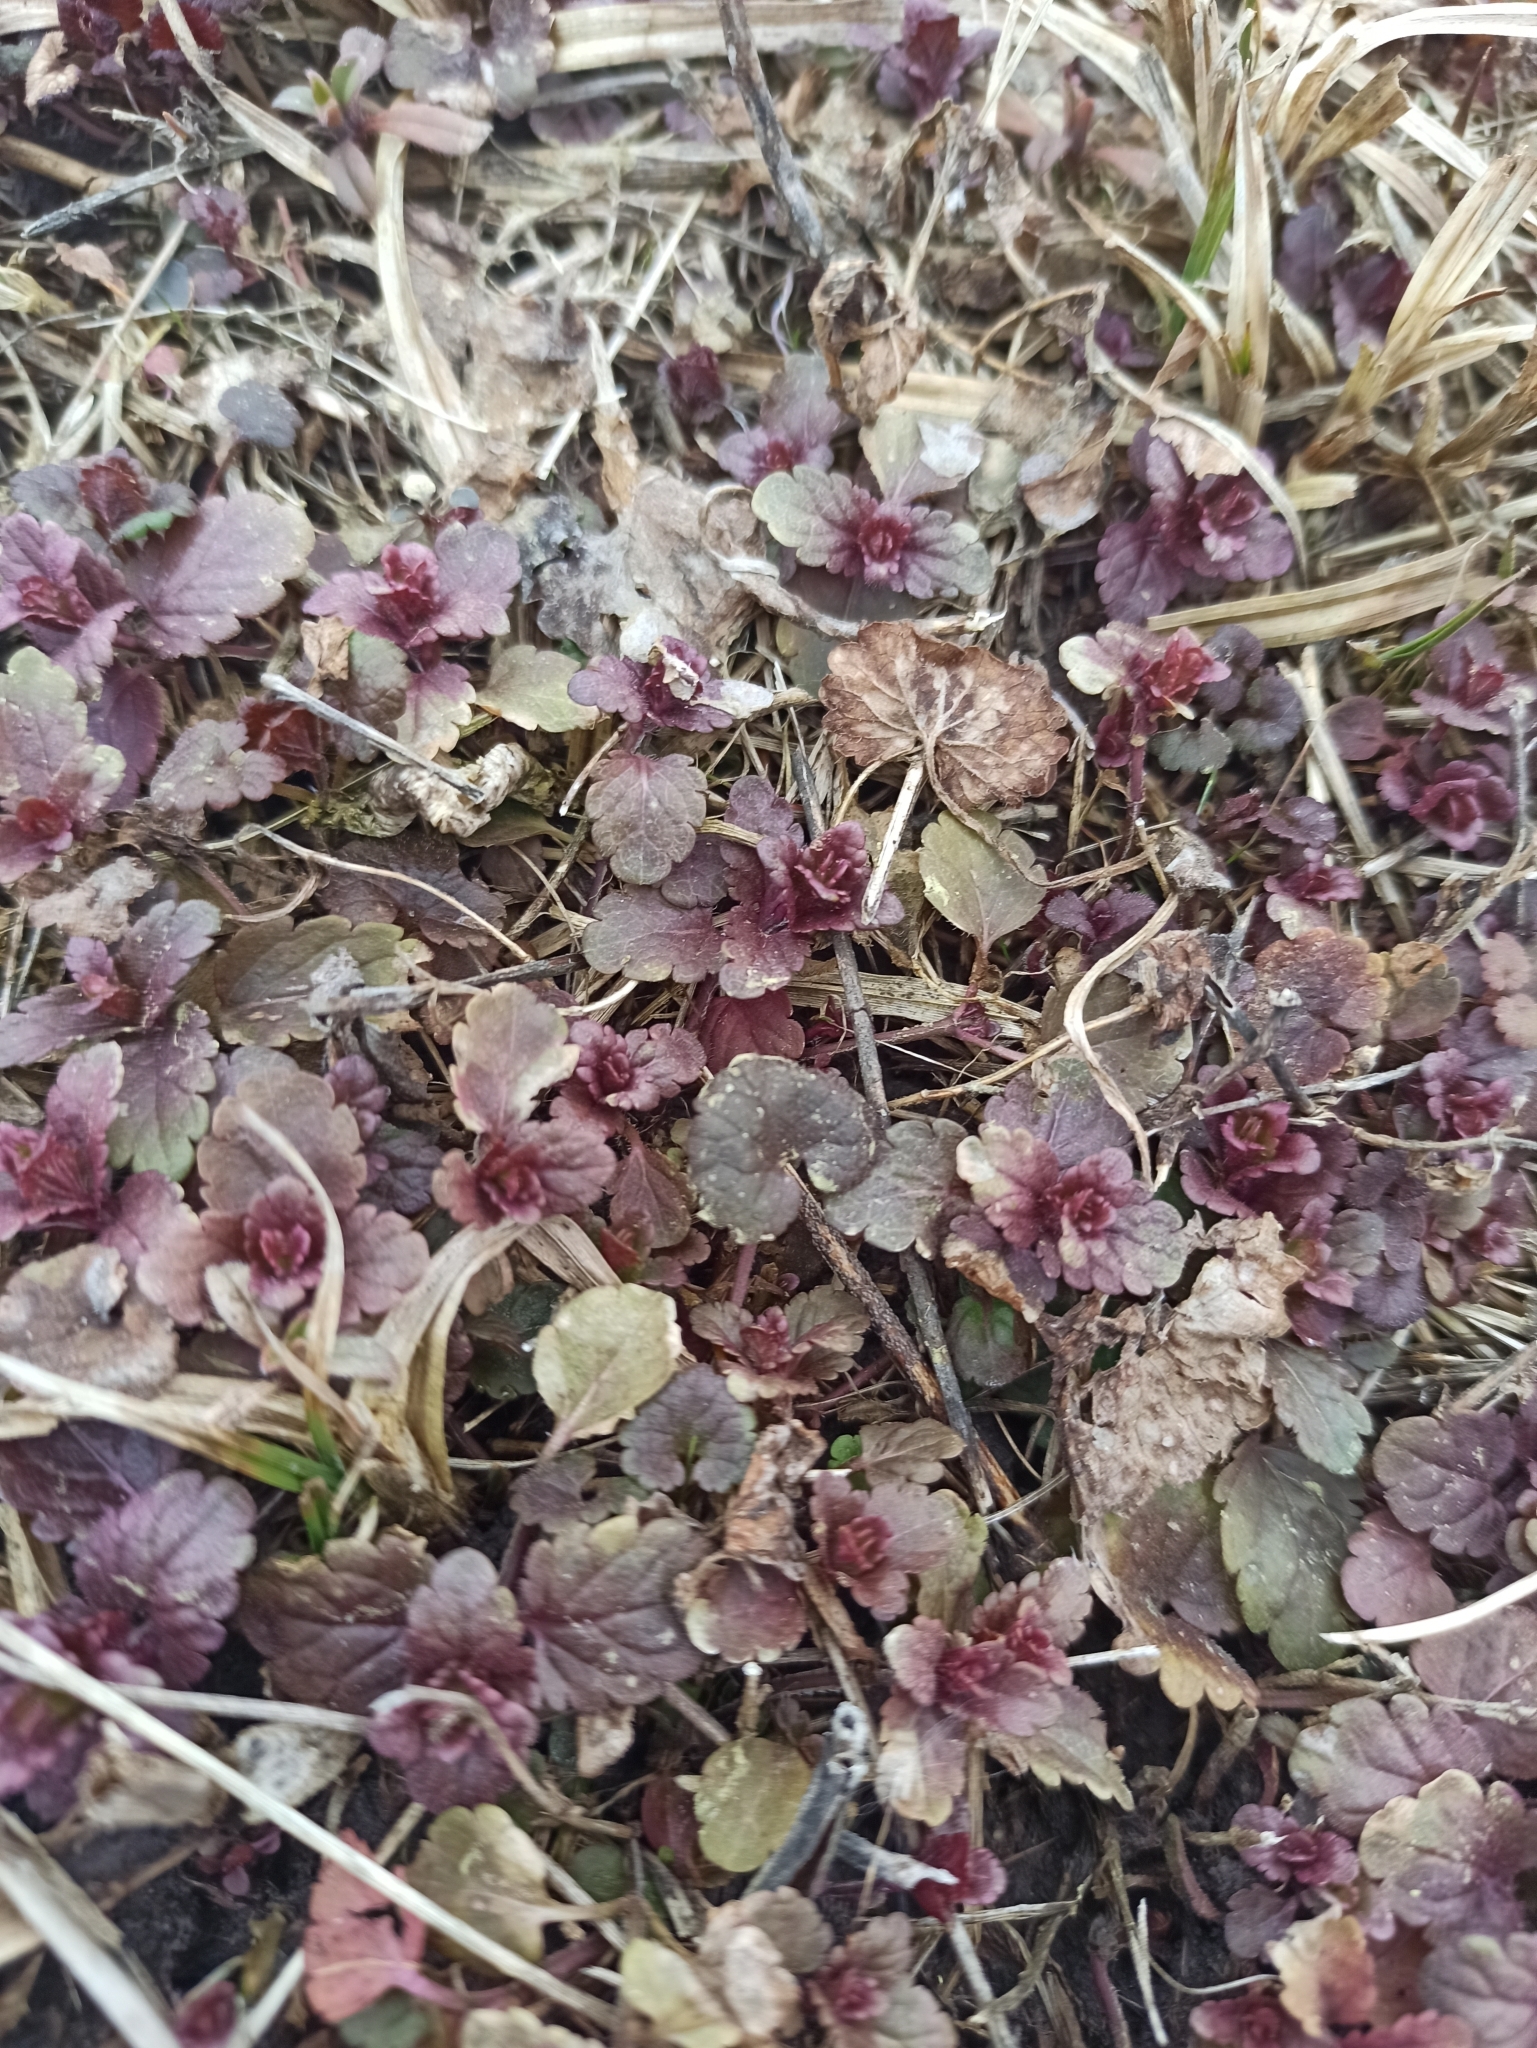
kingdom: Plantae
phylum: Tracheophyta
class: Magnoliopsida
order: Lamiales
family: Plantaginaceae
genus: Veronica
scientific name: Veronica chamaedrys
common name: Germander speedwell
